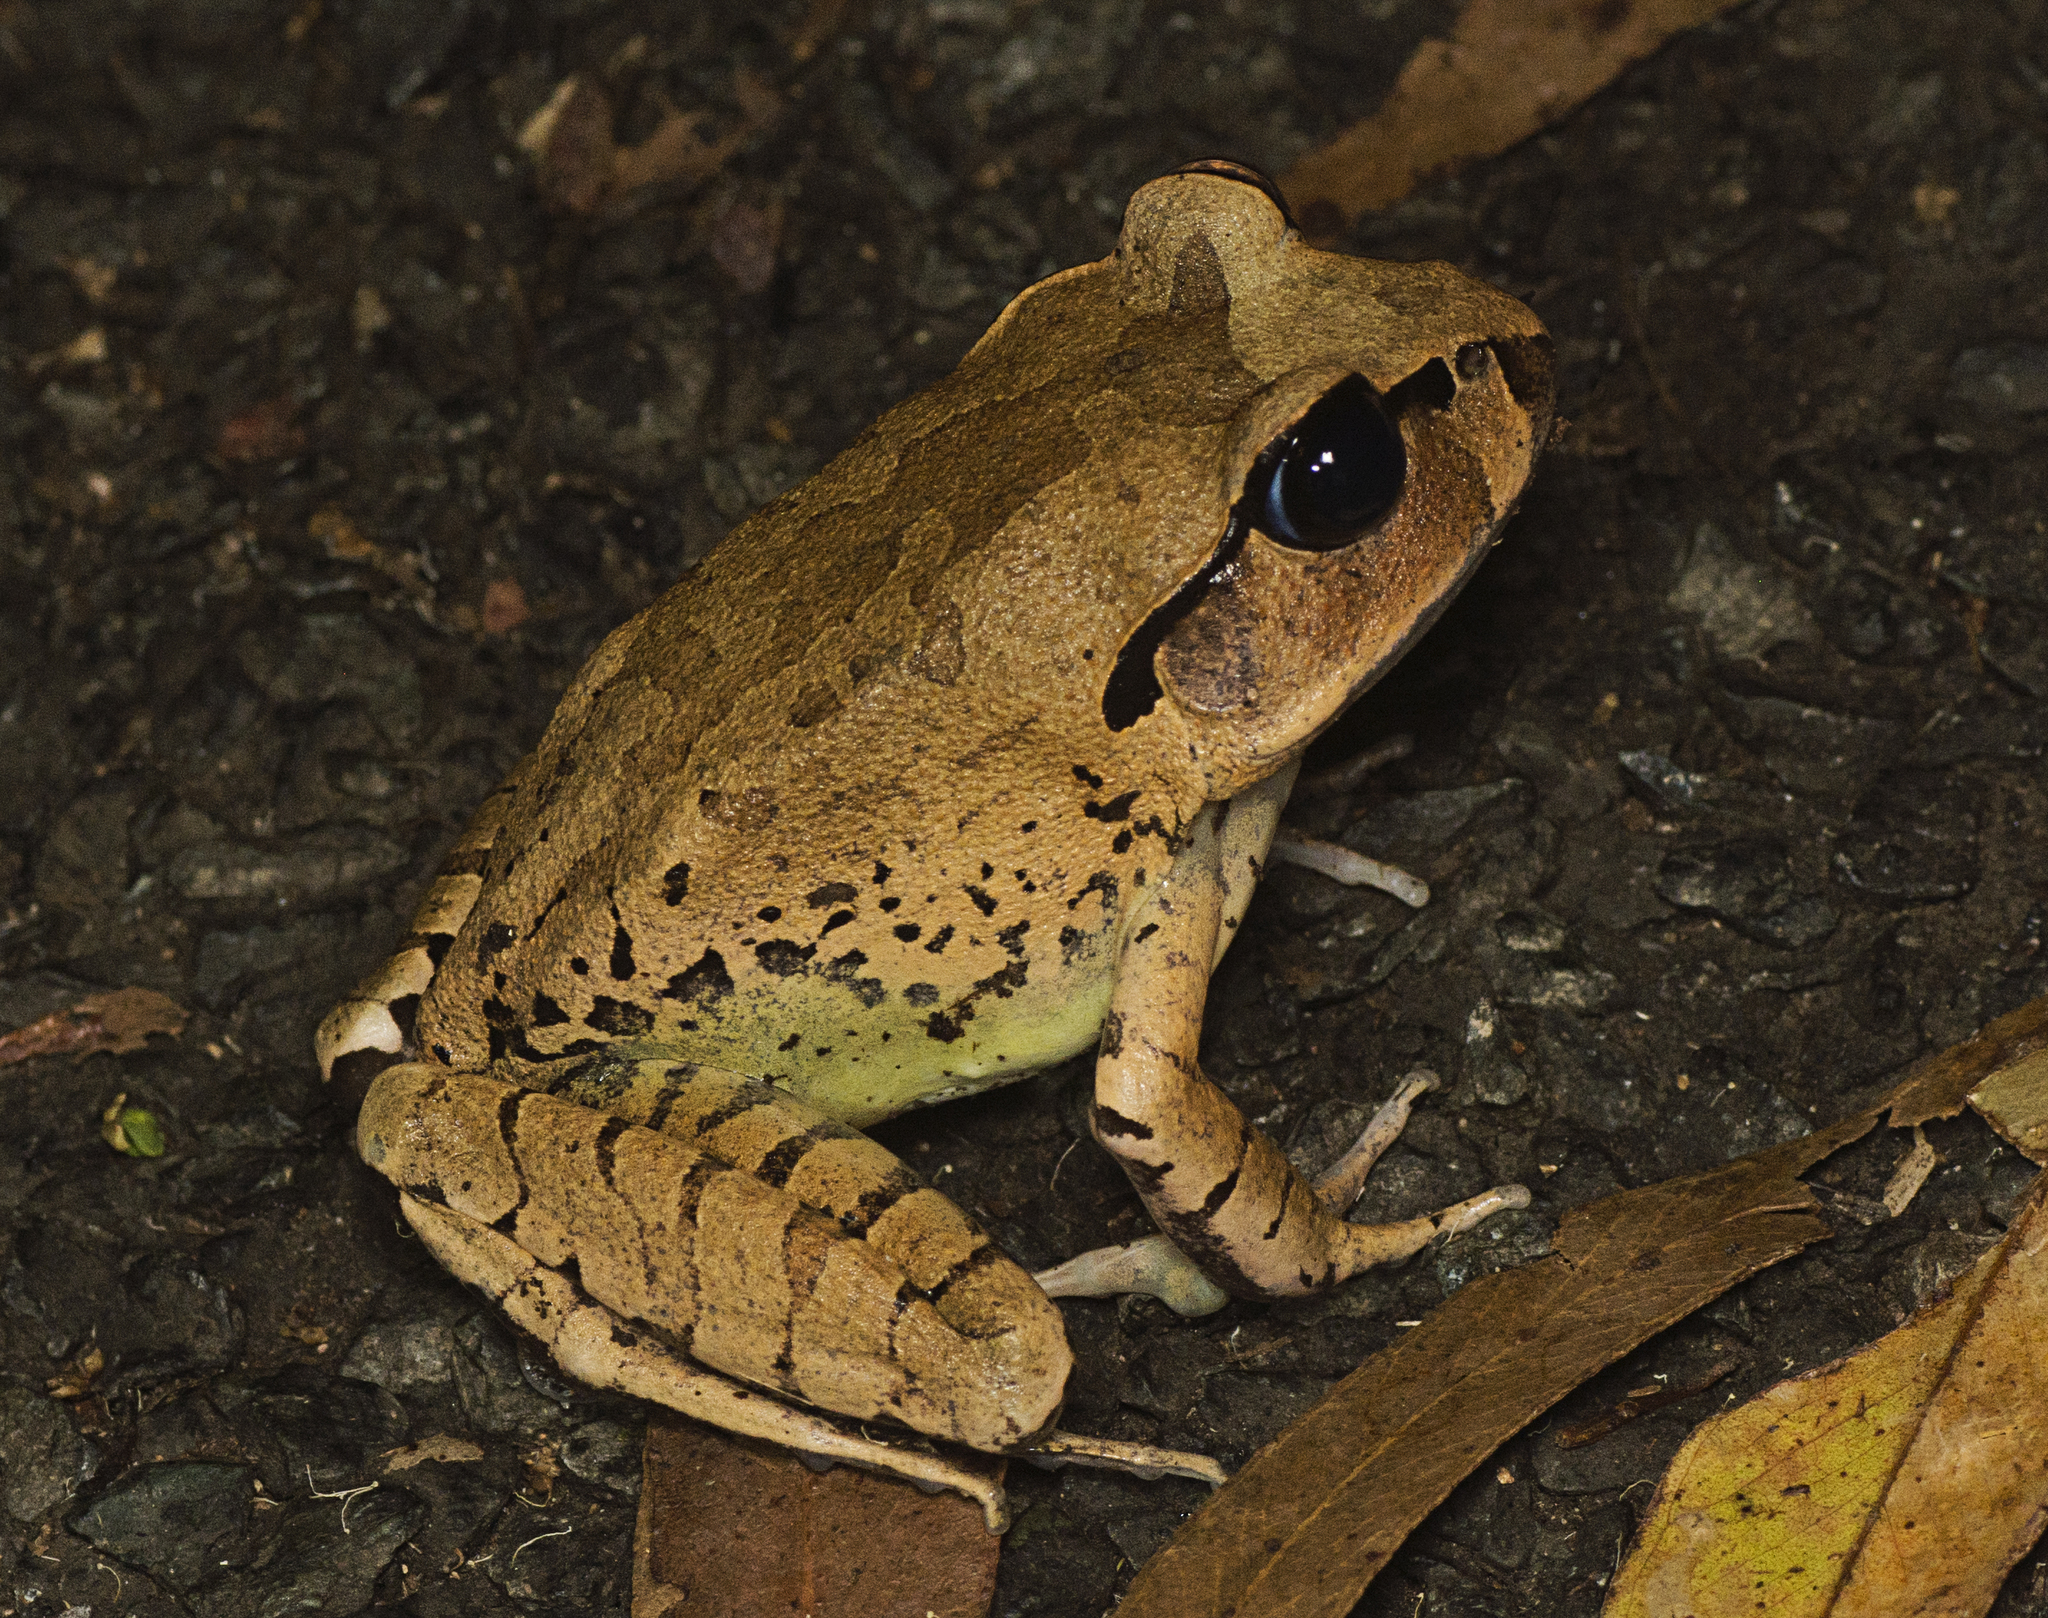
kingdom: Animalia
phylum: Chordata
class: Amphibia
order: Anura
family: Myobatrachidae
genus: Mixophyes
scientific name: Mixophyes fasciolatus
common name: Great barred river-frog
